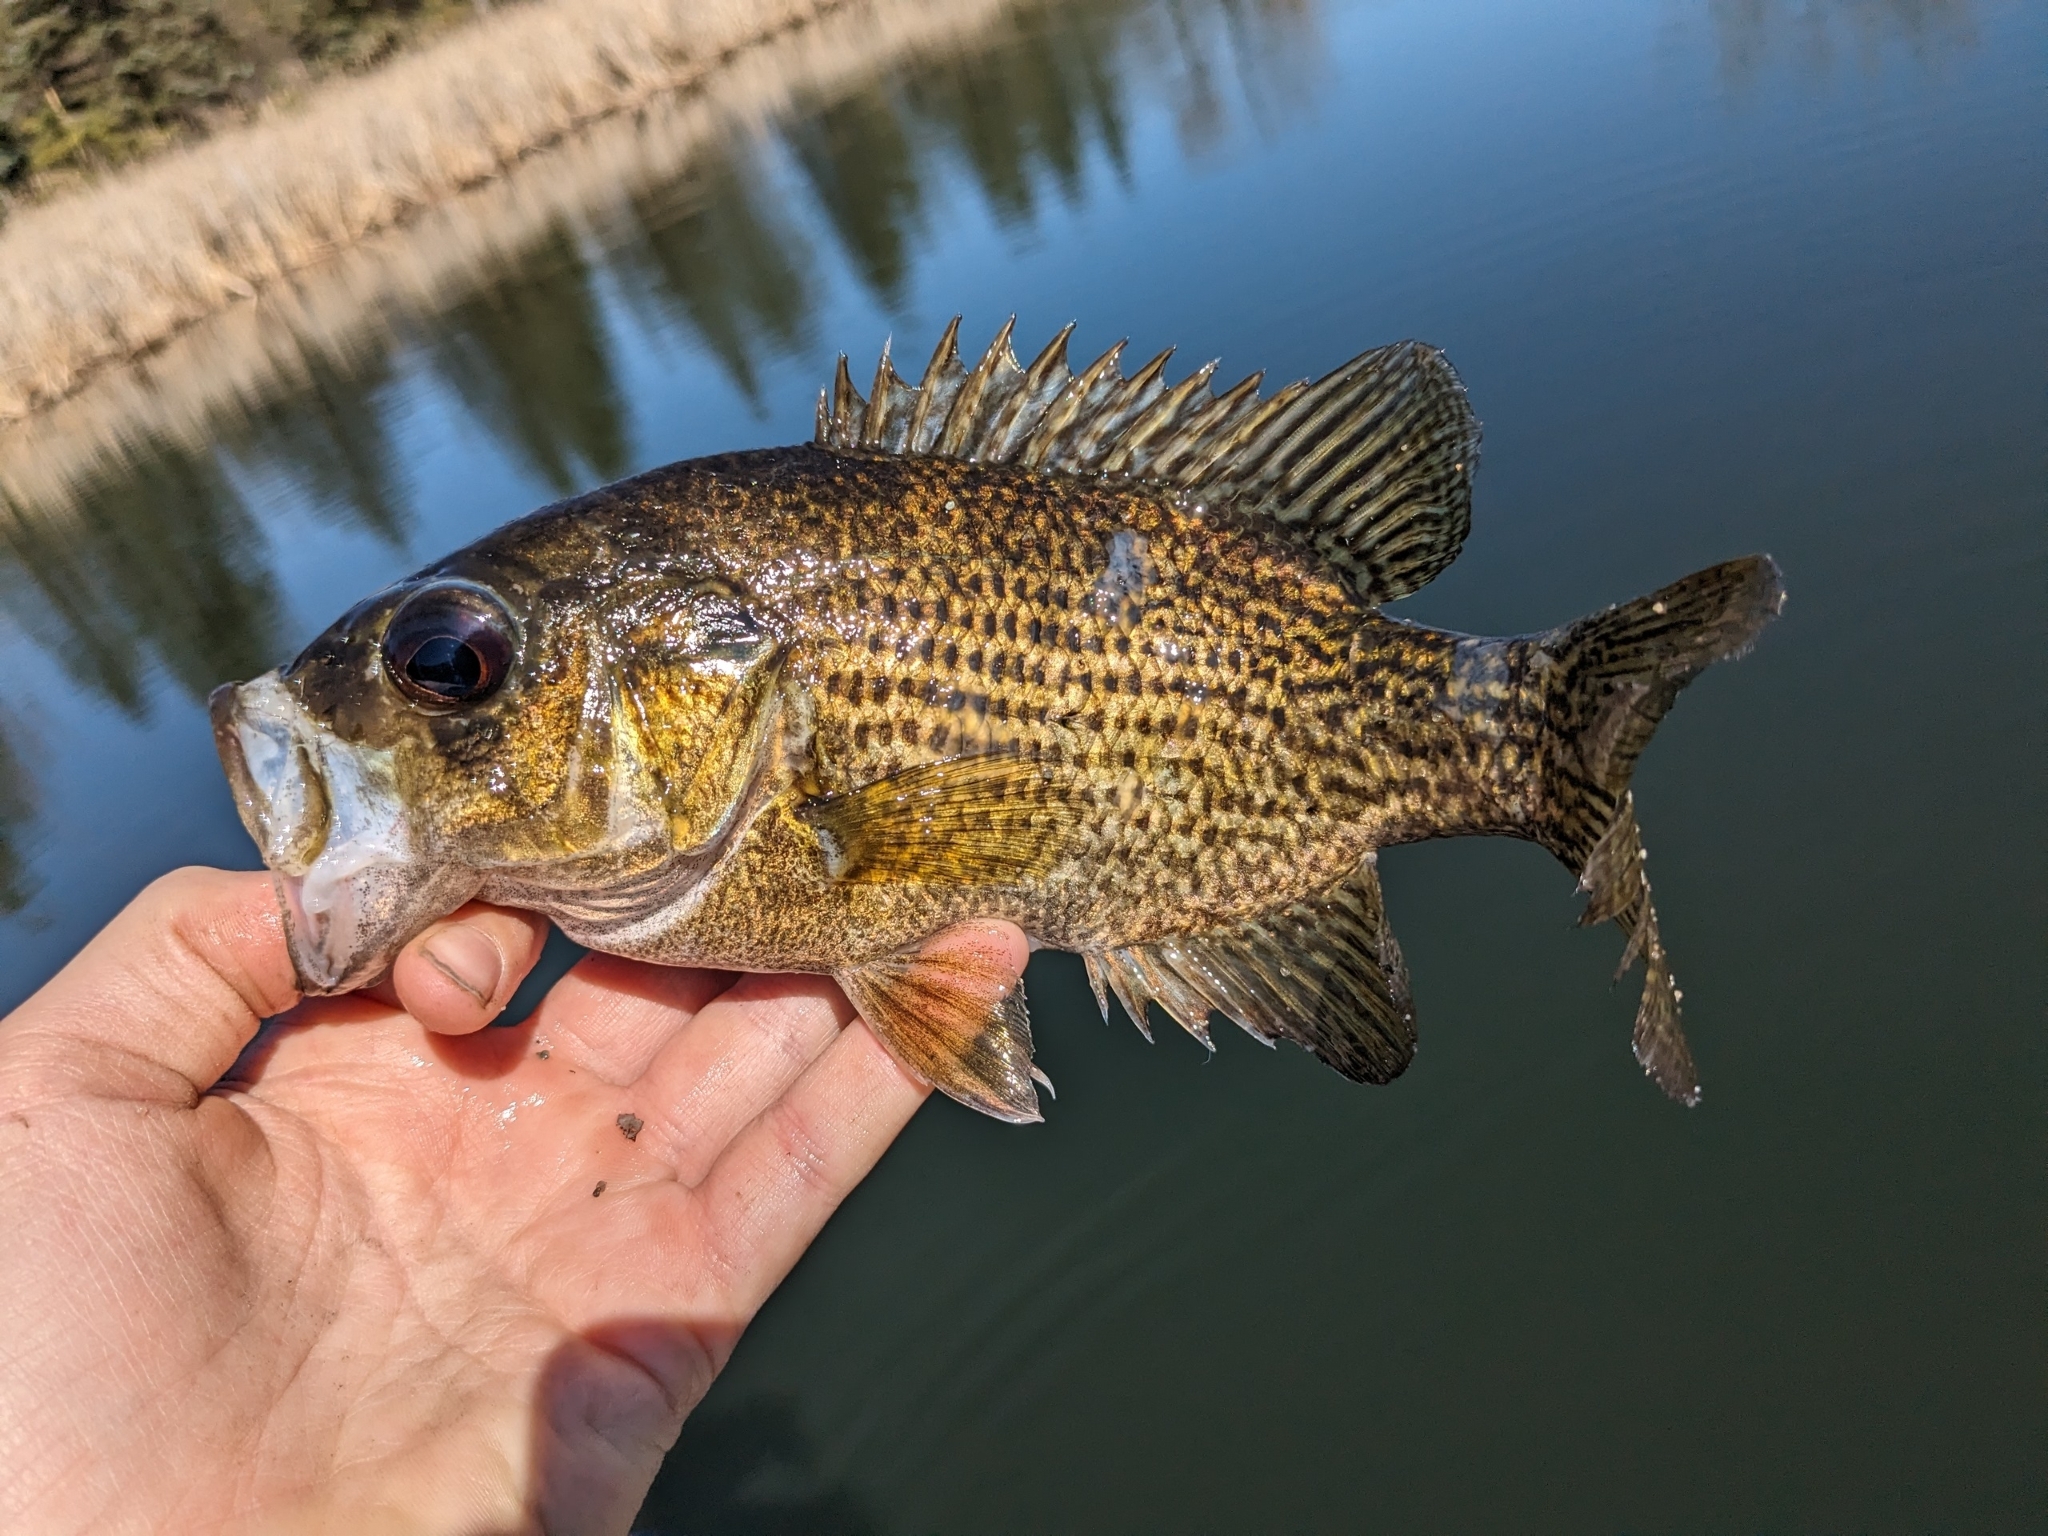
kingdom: Animalia
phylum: Chordata
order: Perciformes
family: Centrarchidae
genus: Ambloplites
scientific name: Ambloplites rupestris
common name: Rock bass
